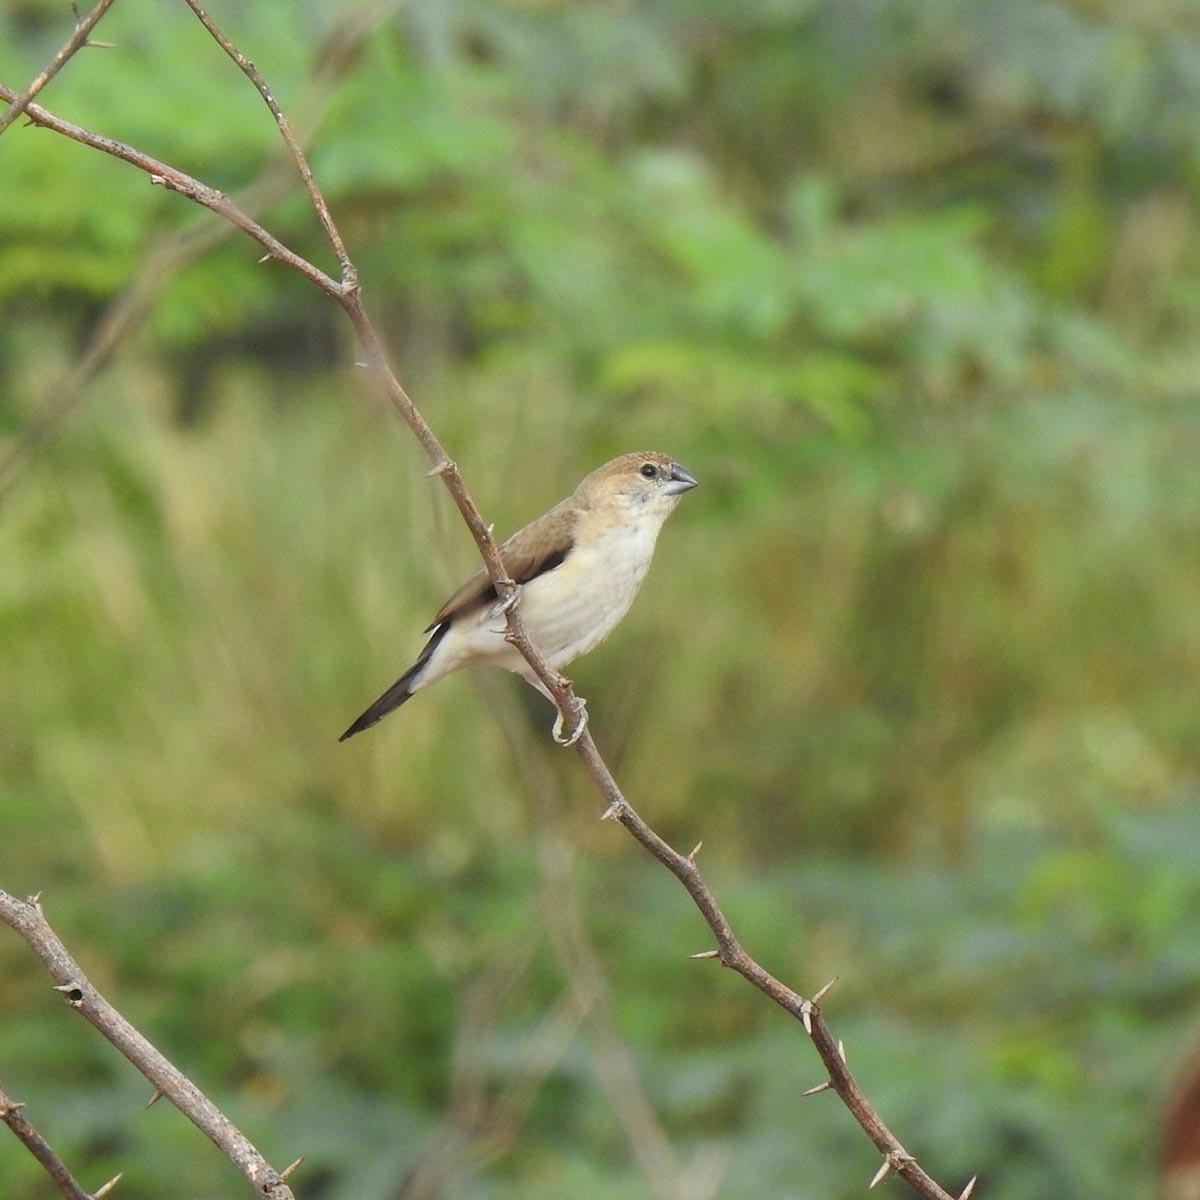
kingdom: Animalia
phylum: Chordata
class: Aves
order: Passeriformes
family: Estrildidae
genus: Euodice
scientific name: Euodice malabarica
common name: Indian silverbill
